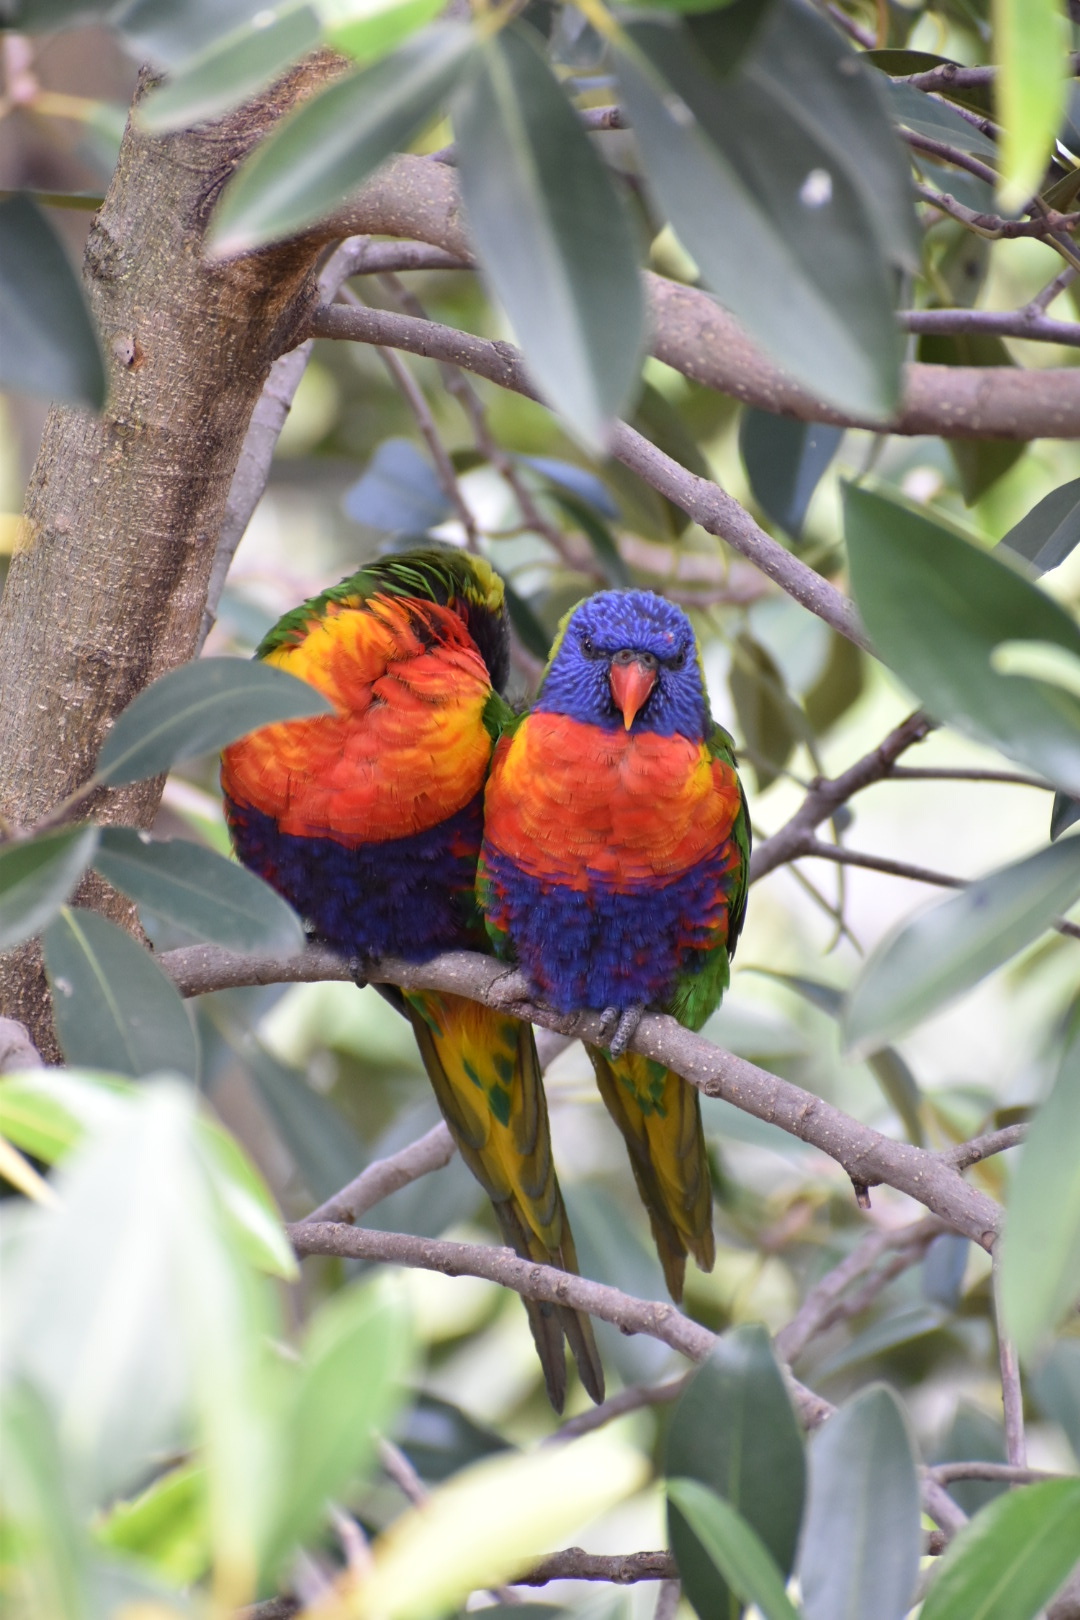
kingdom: Animalia
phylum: Chordata
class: Aves
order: Psittaciformes
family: Psittacidae
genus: Trichoglossus
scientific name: Trichoglossus haematodus
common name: Coconut lorikeet
